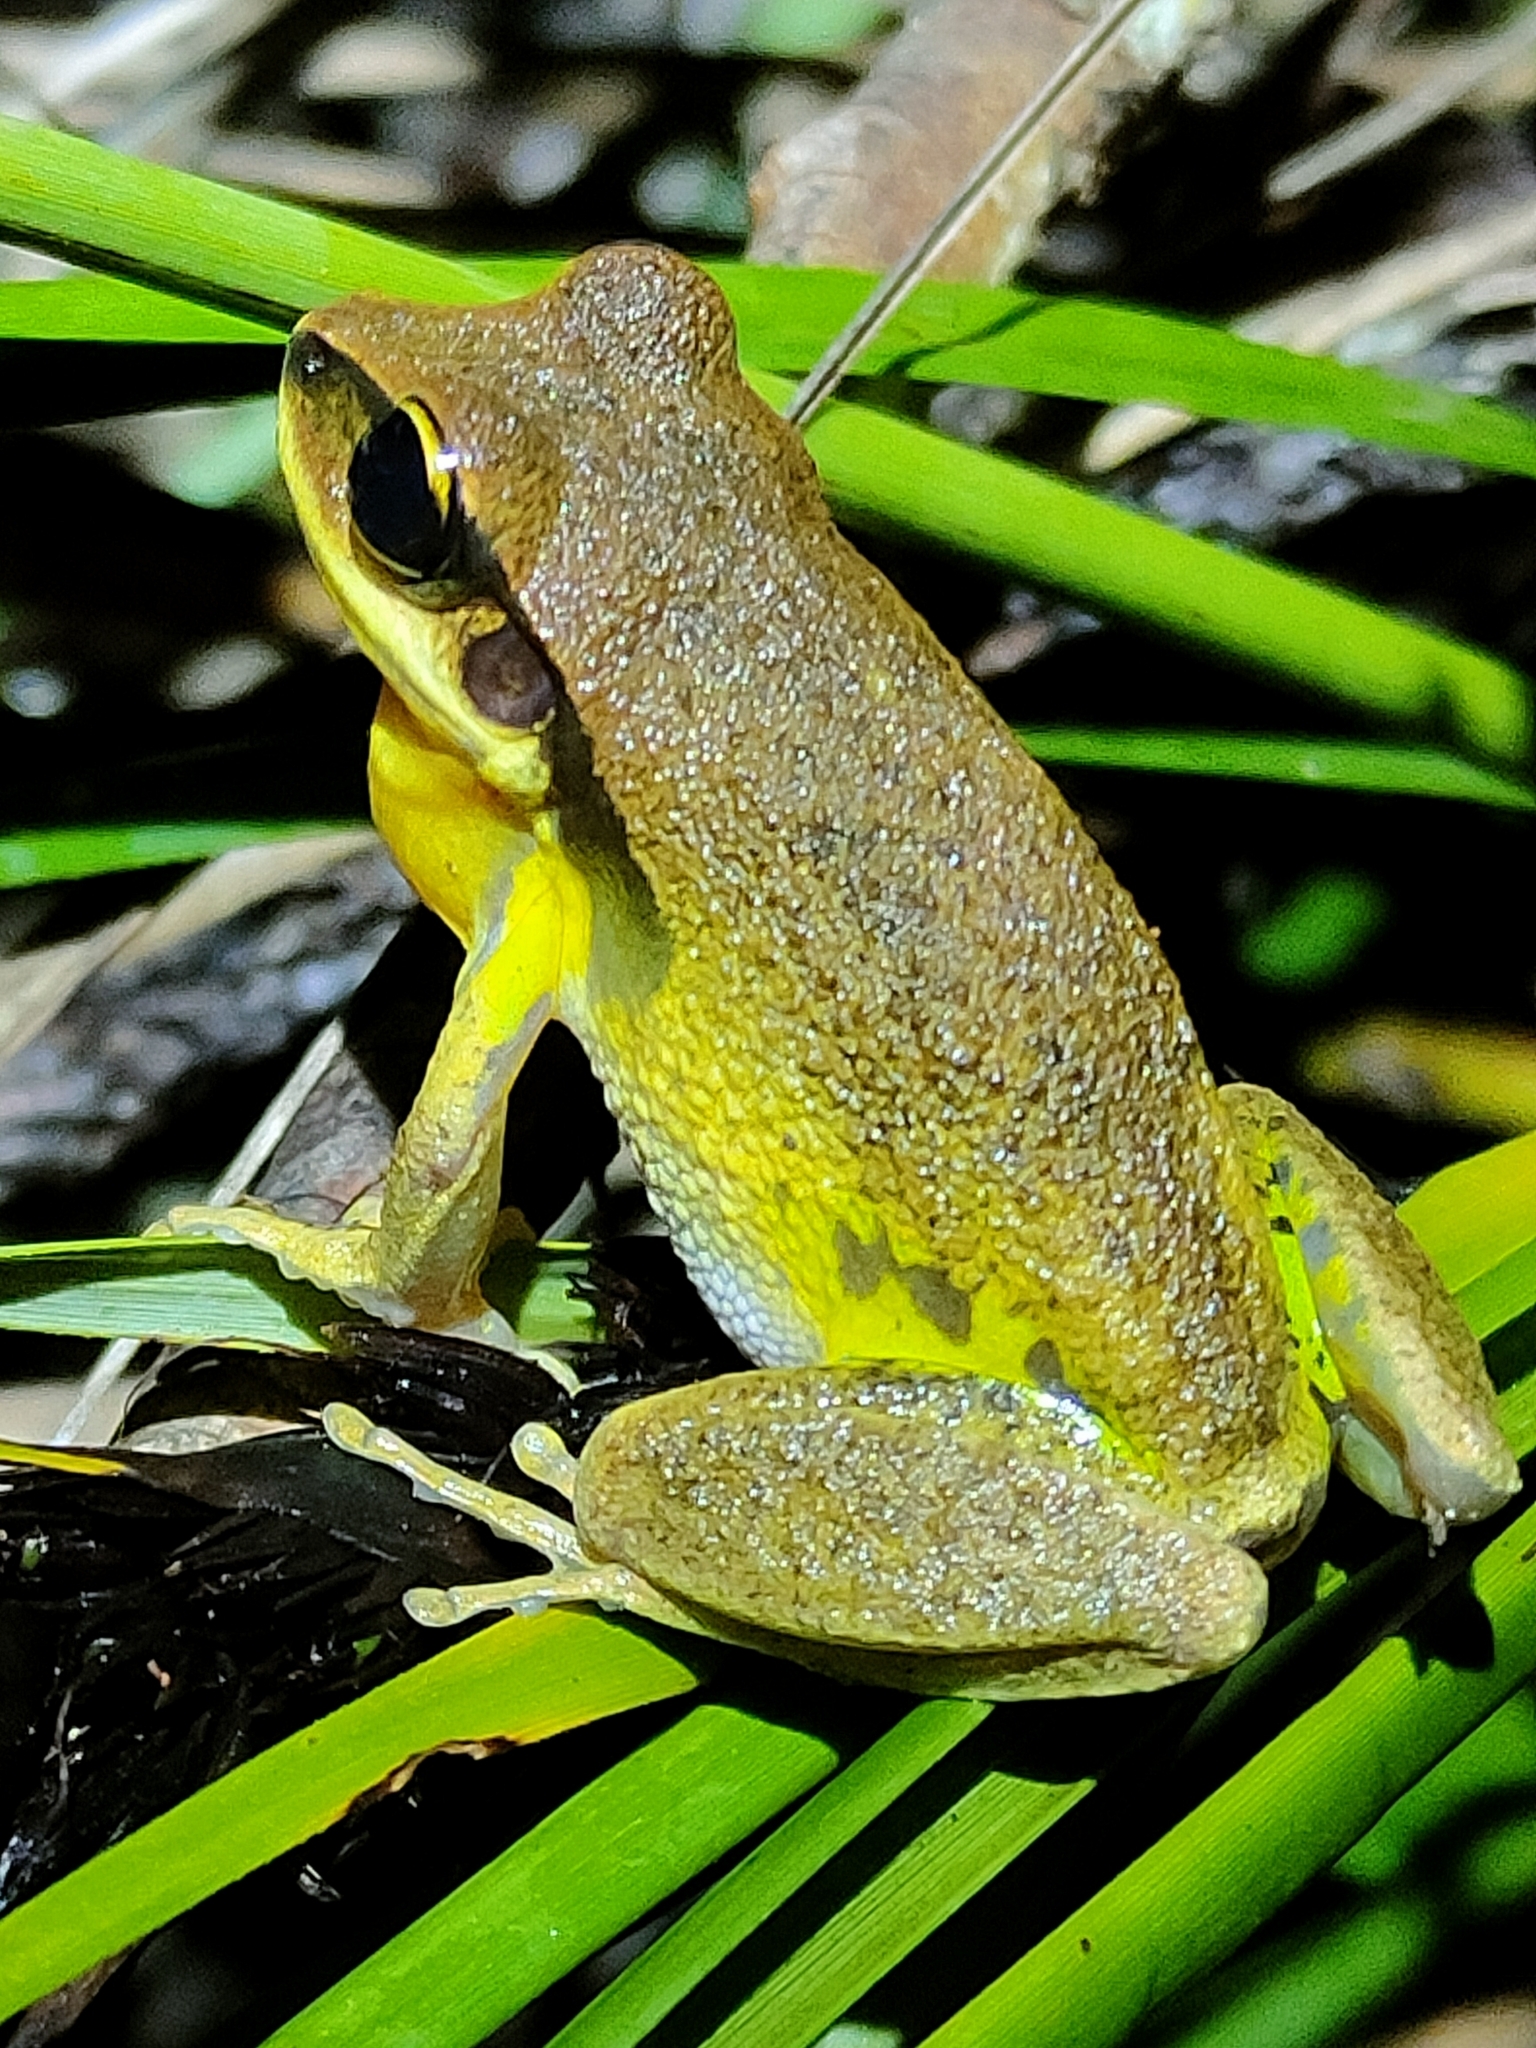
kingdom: Animalia
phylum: Chordata
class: Amphibia
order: Anura
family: Pelodryadidae
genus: Nyctimystes
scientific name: Nyctimystes brevipalmatus
